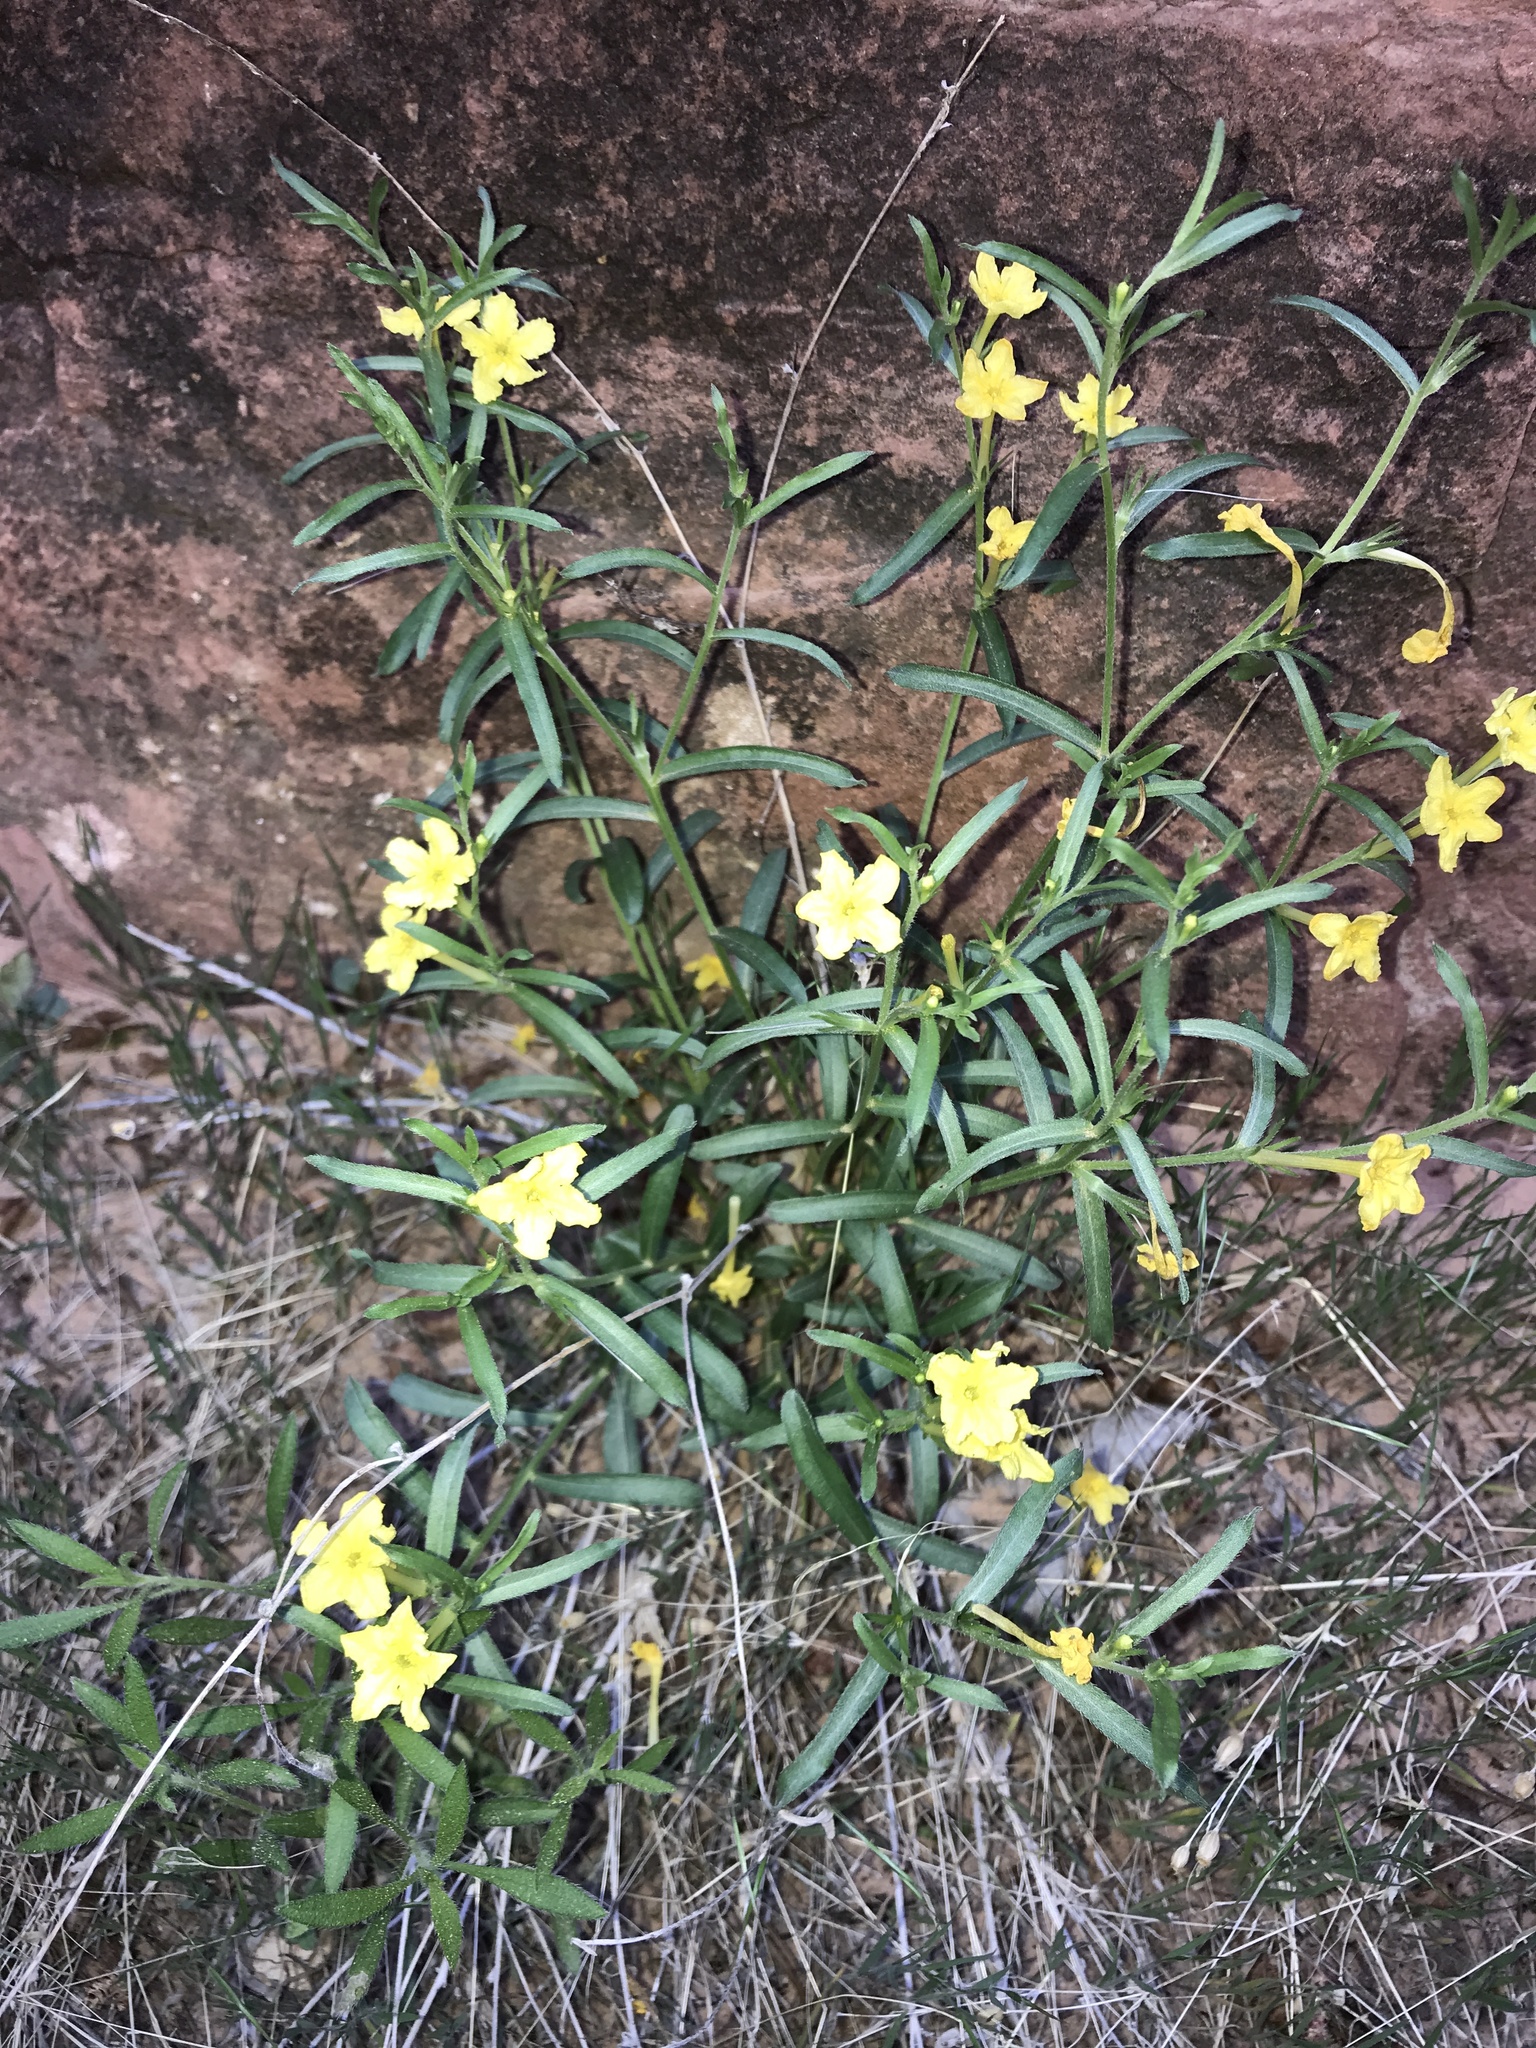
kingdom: Plantae
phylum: Tracheophyta
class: Magnoliopsida
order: Boraginales
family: Boraginaceae
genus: Lithospermum
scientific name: Lithospermum incisum
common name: Fringed gromwell
